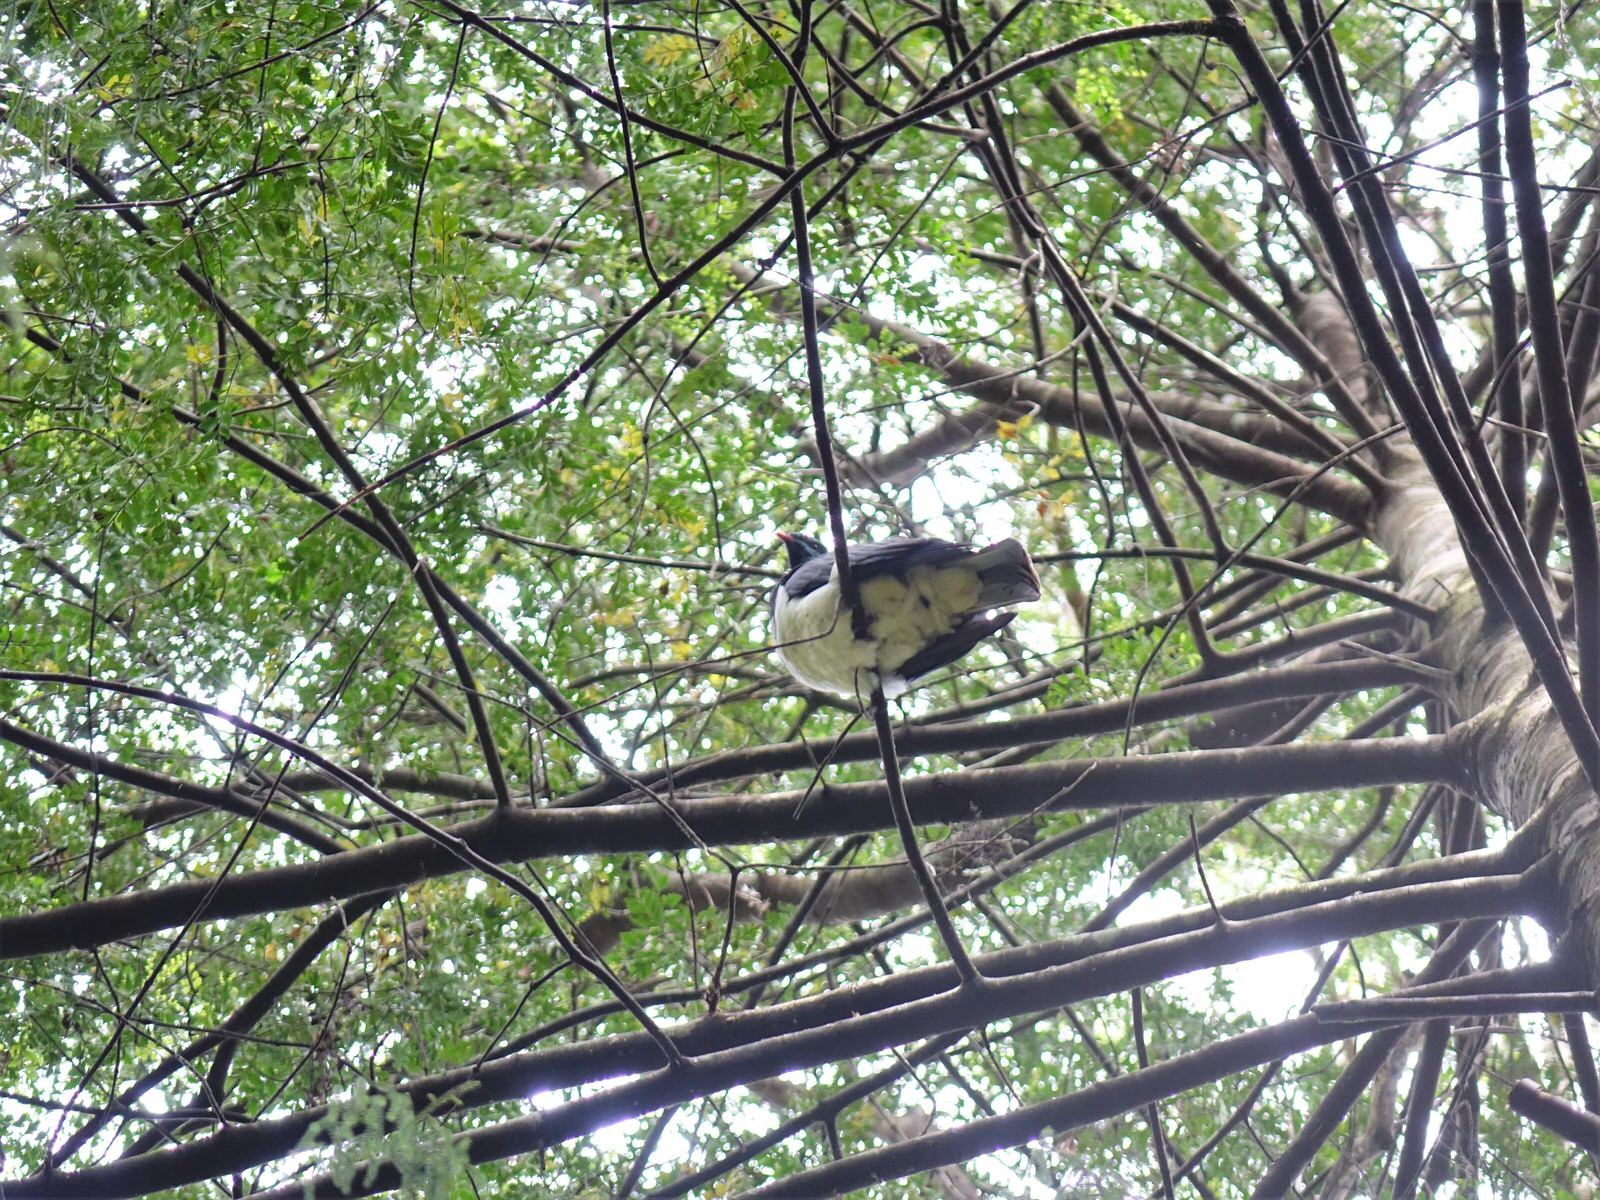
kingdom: Animalia
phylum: Chordata
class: Aves
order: Columbiformes
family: Columbidae
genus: Hemiphaga
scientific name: Hemiphaga novaeseelandiae
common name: New zealand pigeon
